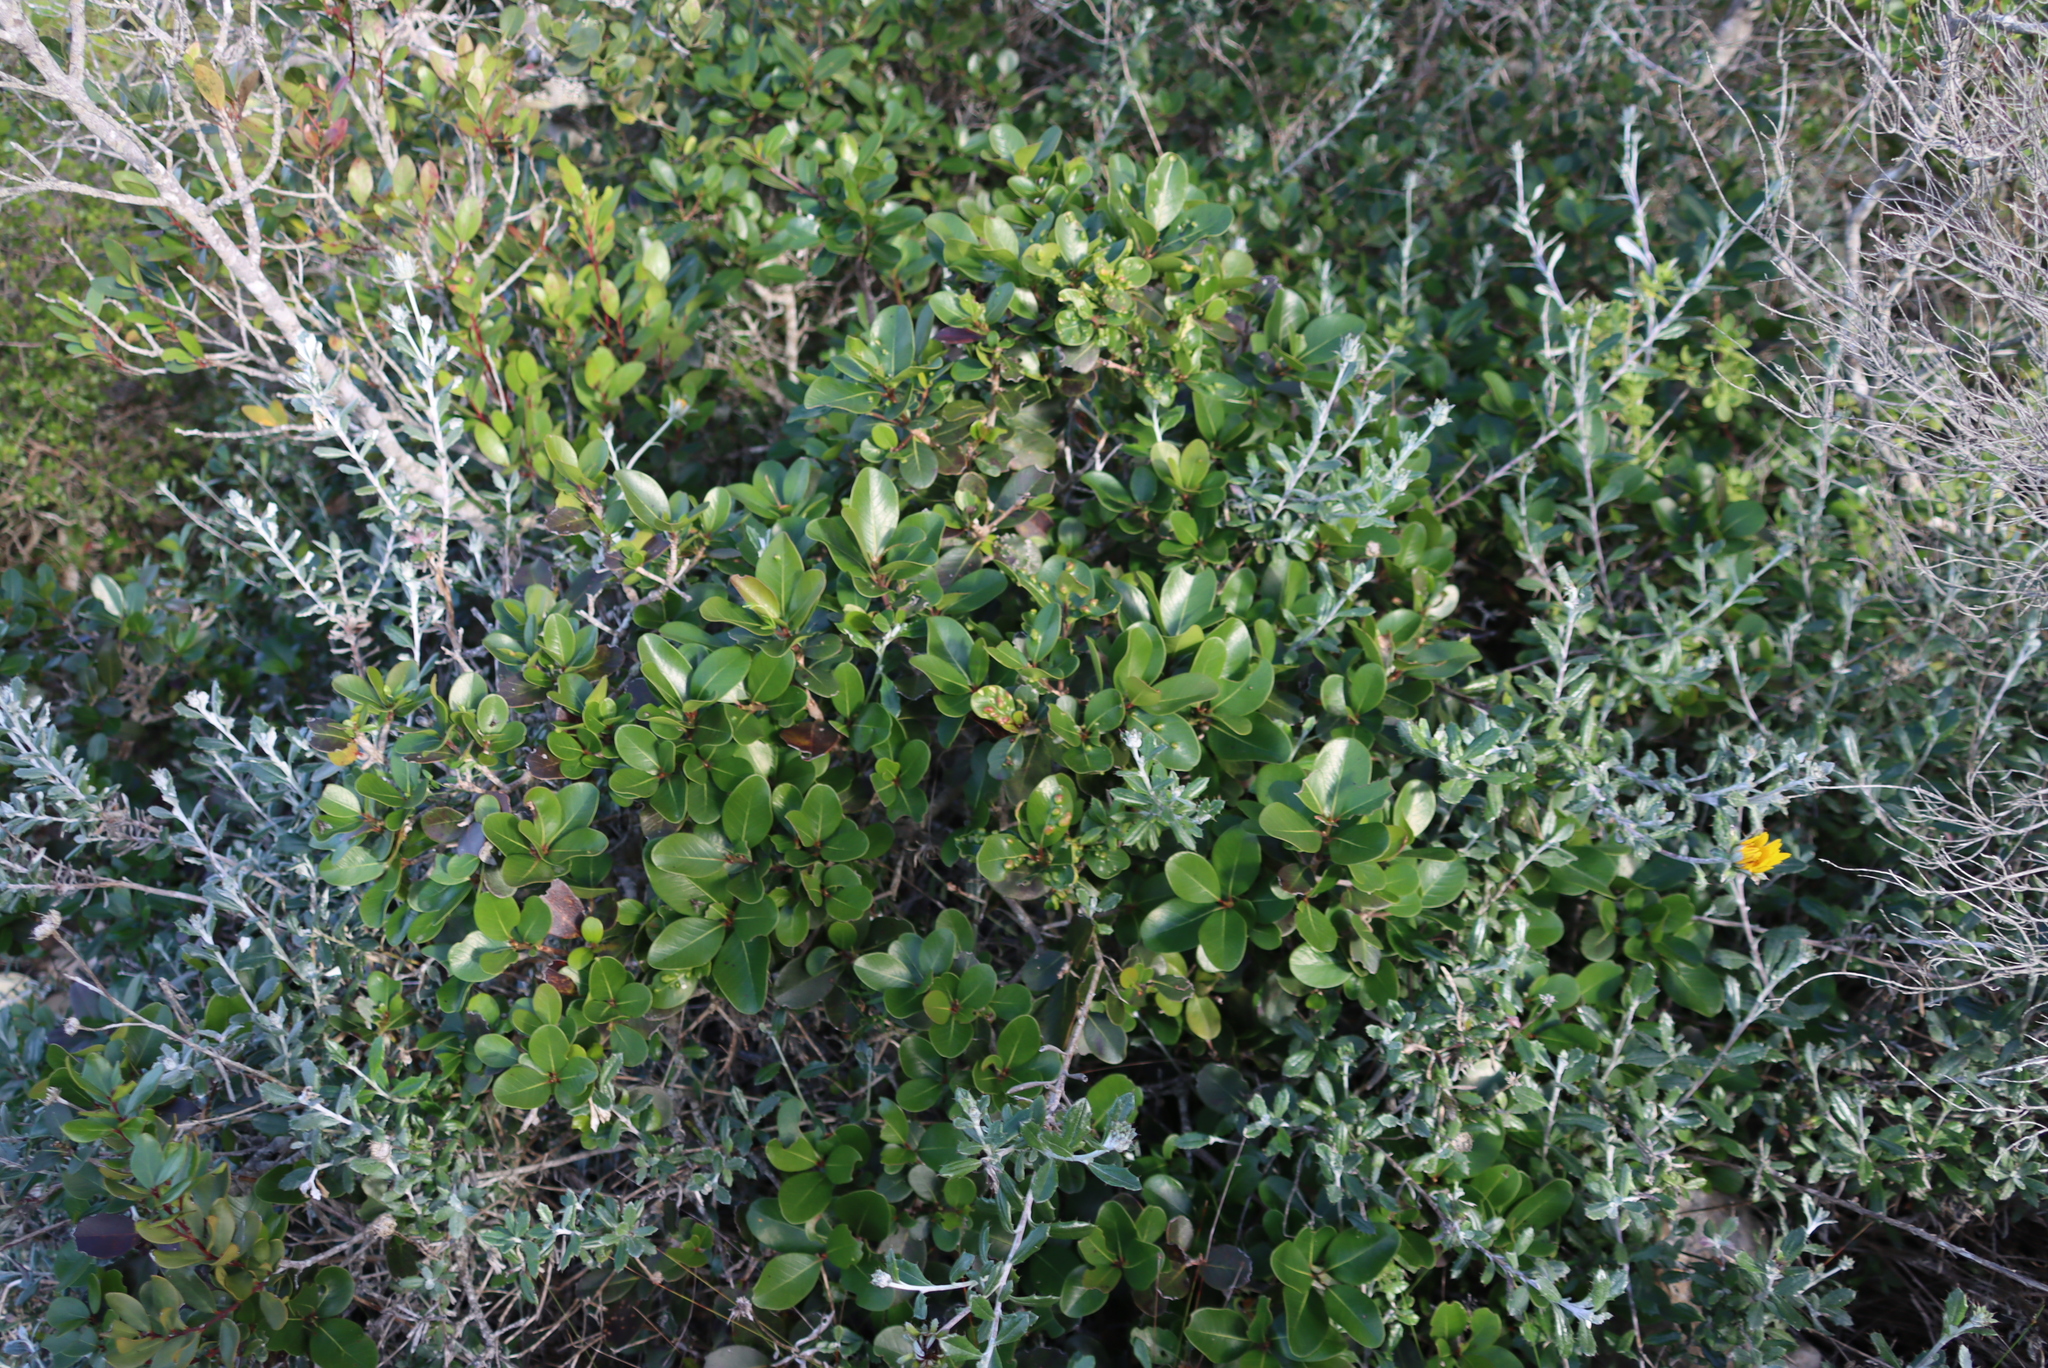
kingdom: Plantae
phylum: Tracheophyta
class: Magnoliopsida
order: Ericales
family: Sapotaceae
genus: Sideroxylon
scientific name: Sideroxylon inerme
